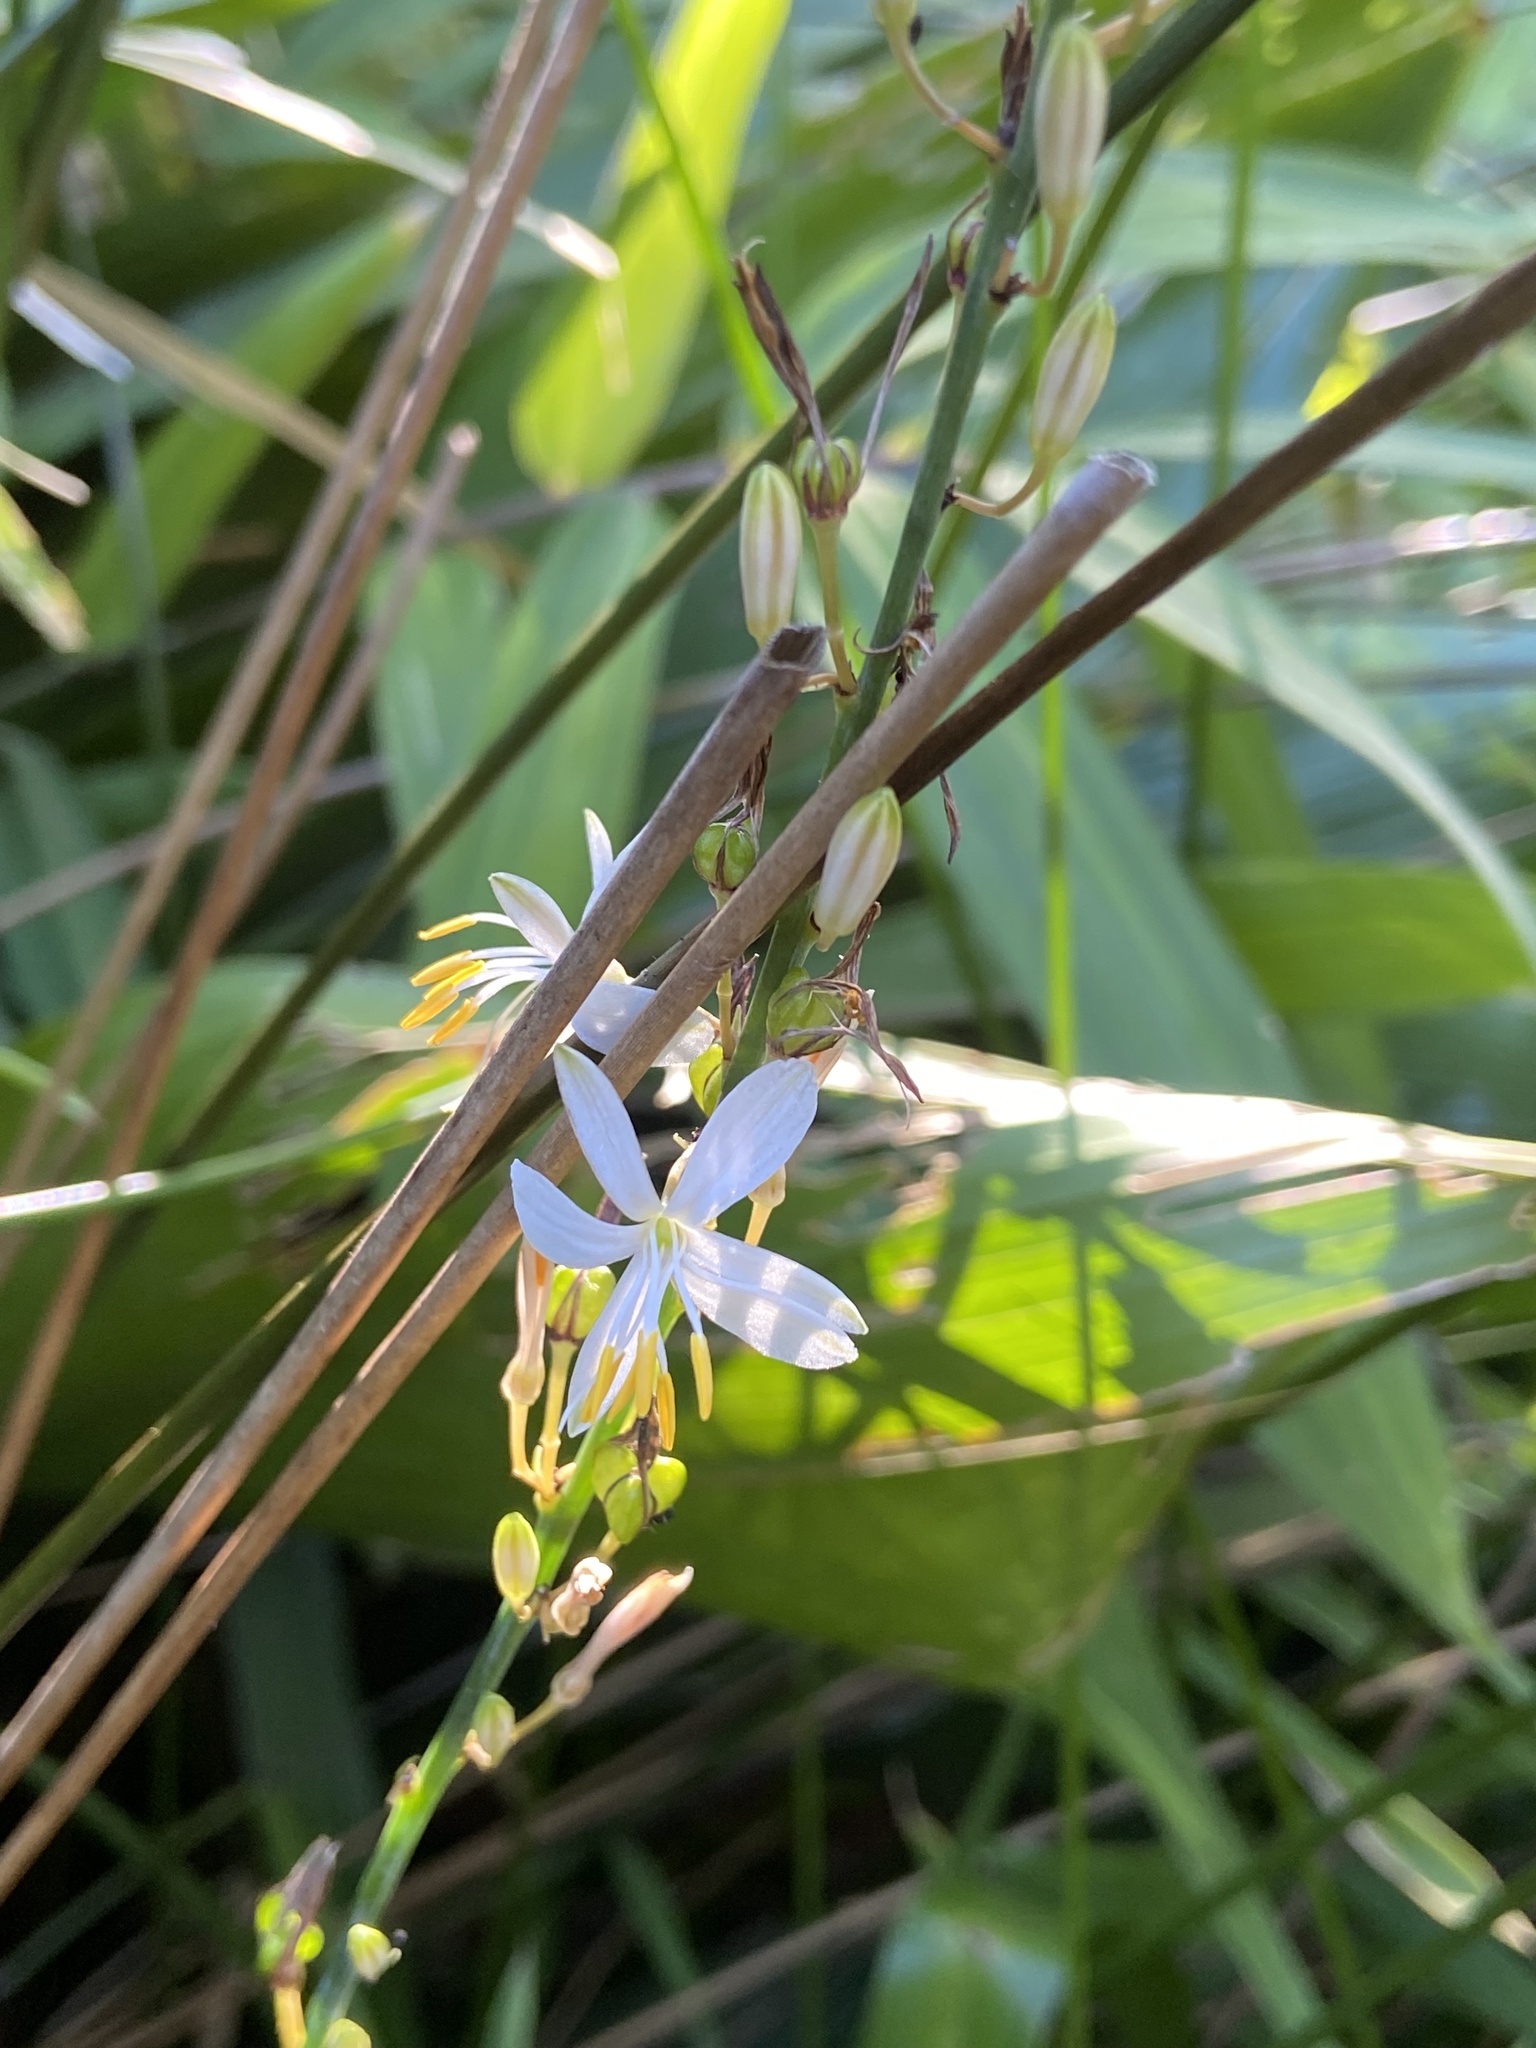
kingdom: Plantae
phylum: Tracheophyta
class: Liliopsida
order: Asparagales
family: Asparagaceae
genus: Chlorophytum
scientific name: Chlorophytum comosum
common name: Spider plant
